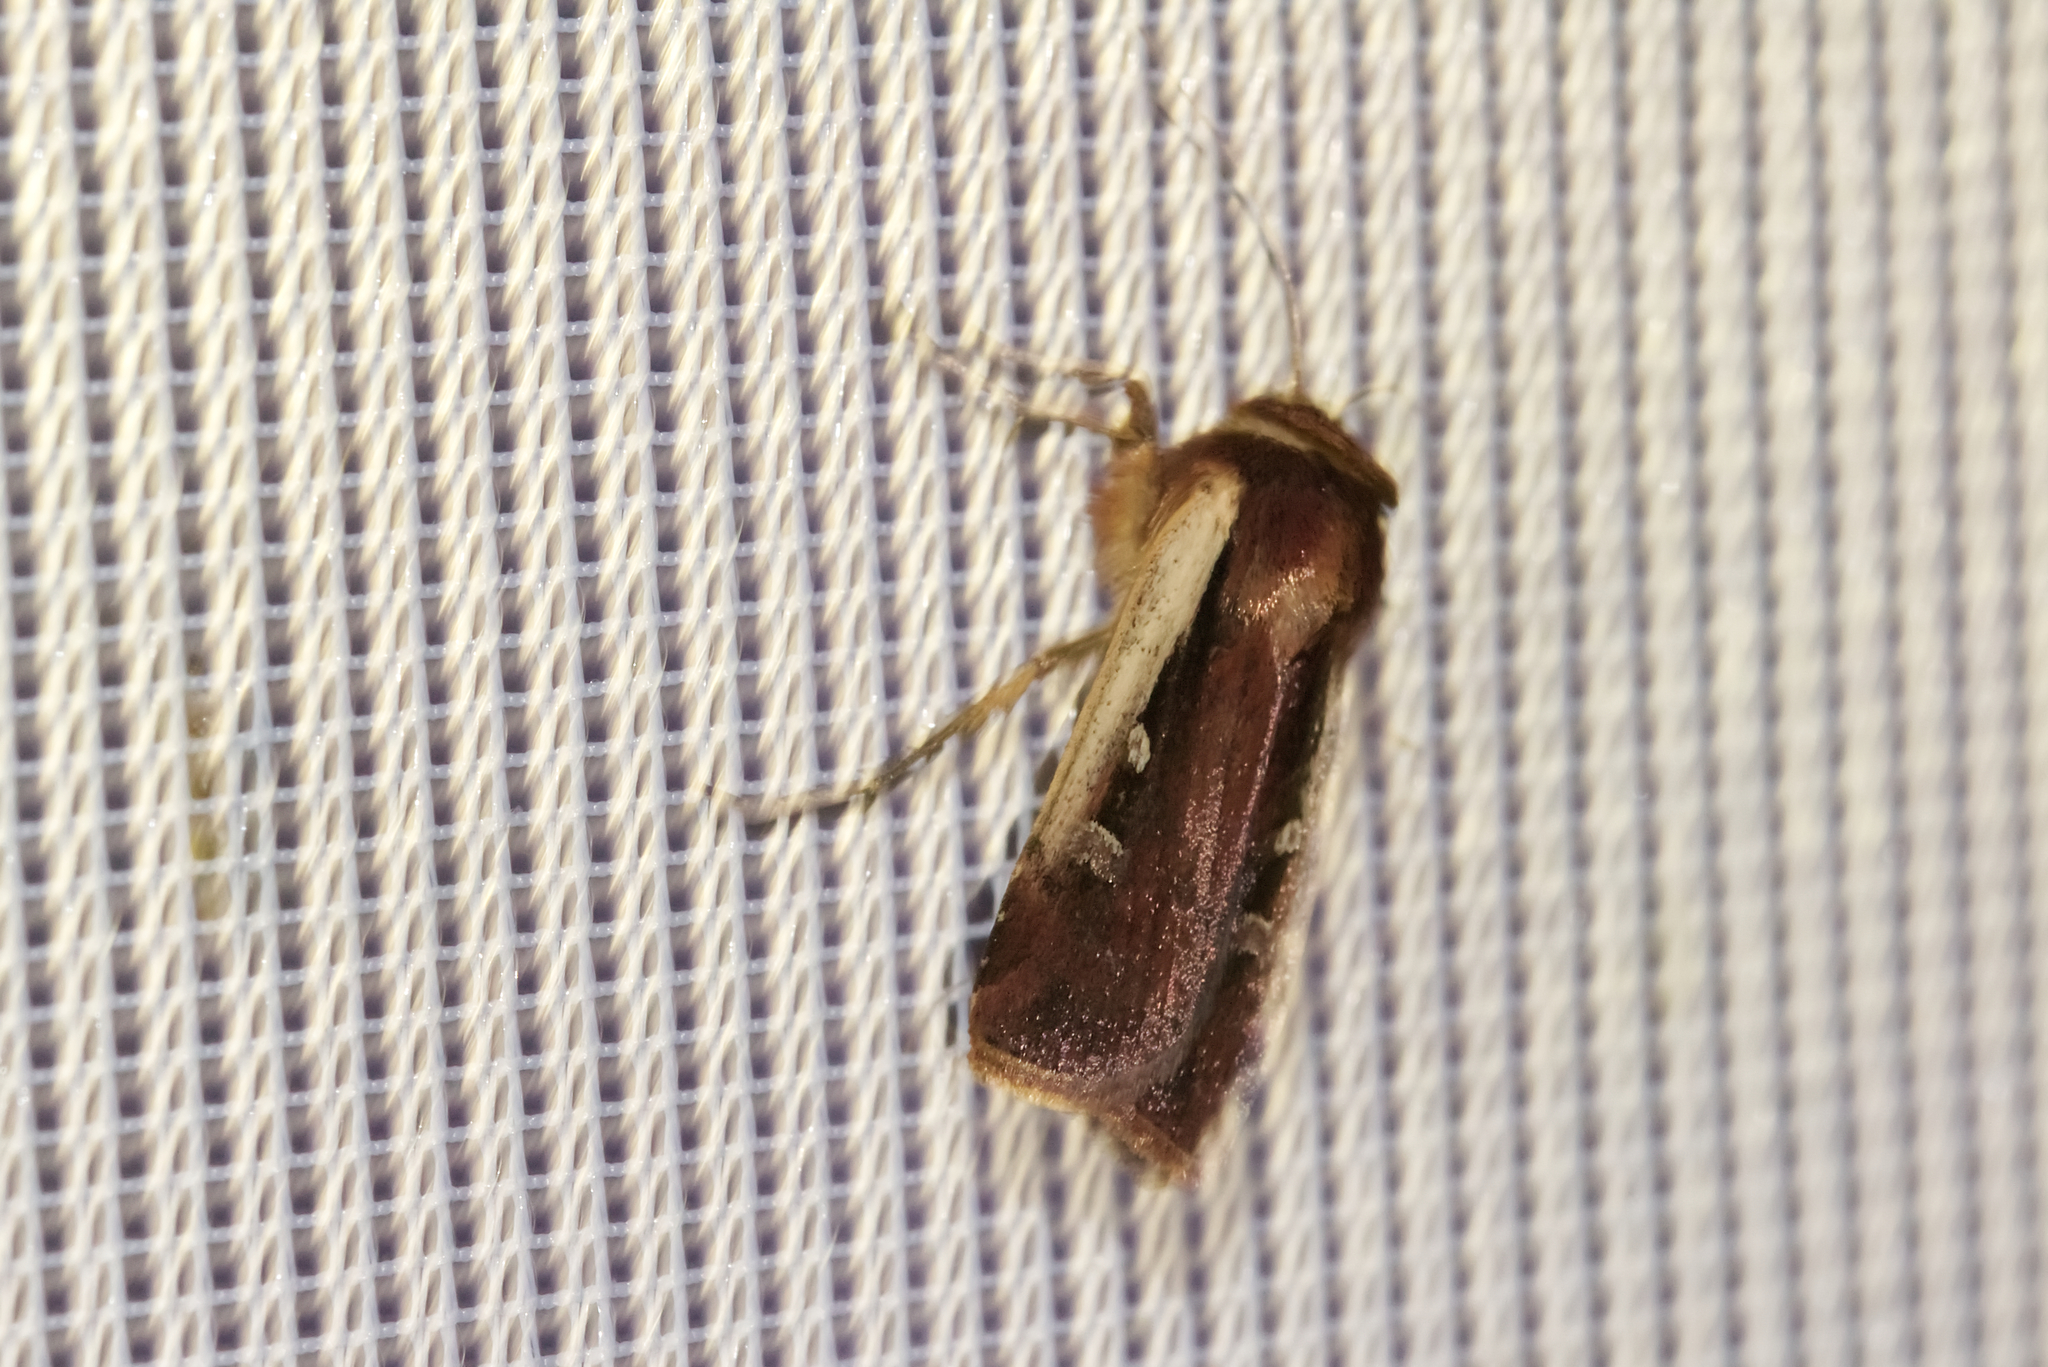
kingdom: Animalia
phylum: Arthropoda
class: Insecta
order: Lepidoptera
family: Noctuidae
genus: Ochropleura
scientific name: Ochropleura plecta
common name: Flame shoulder
